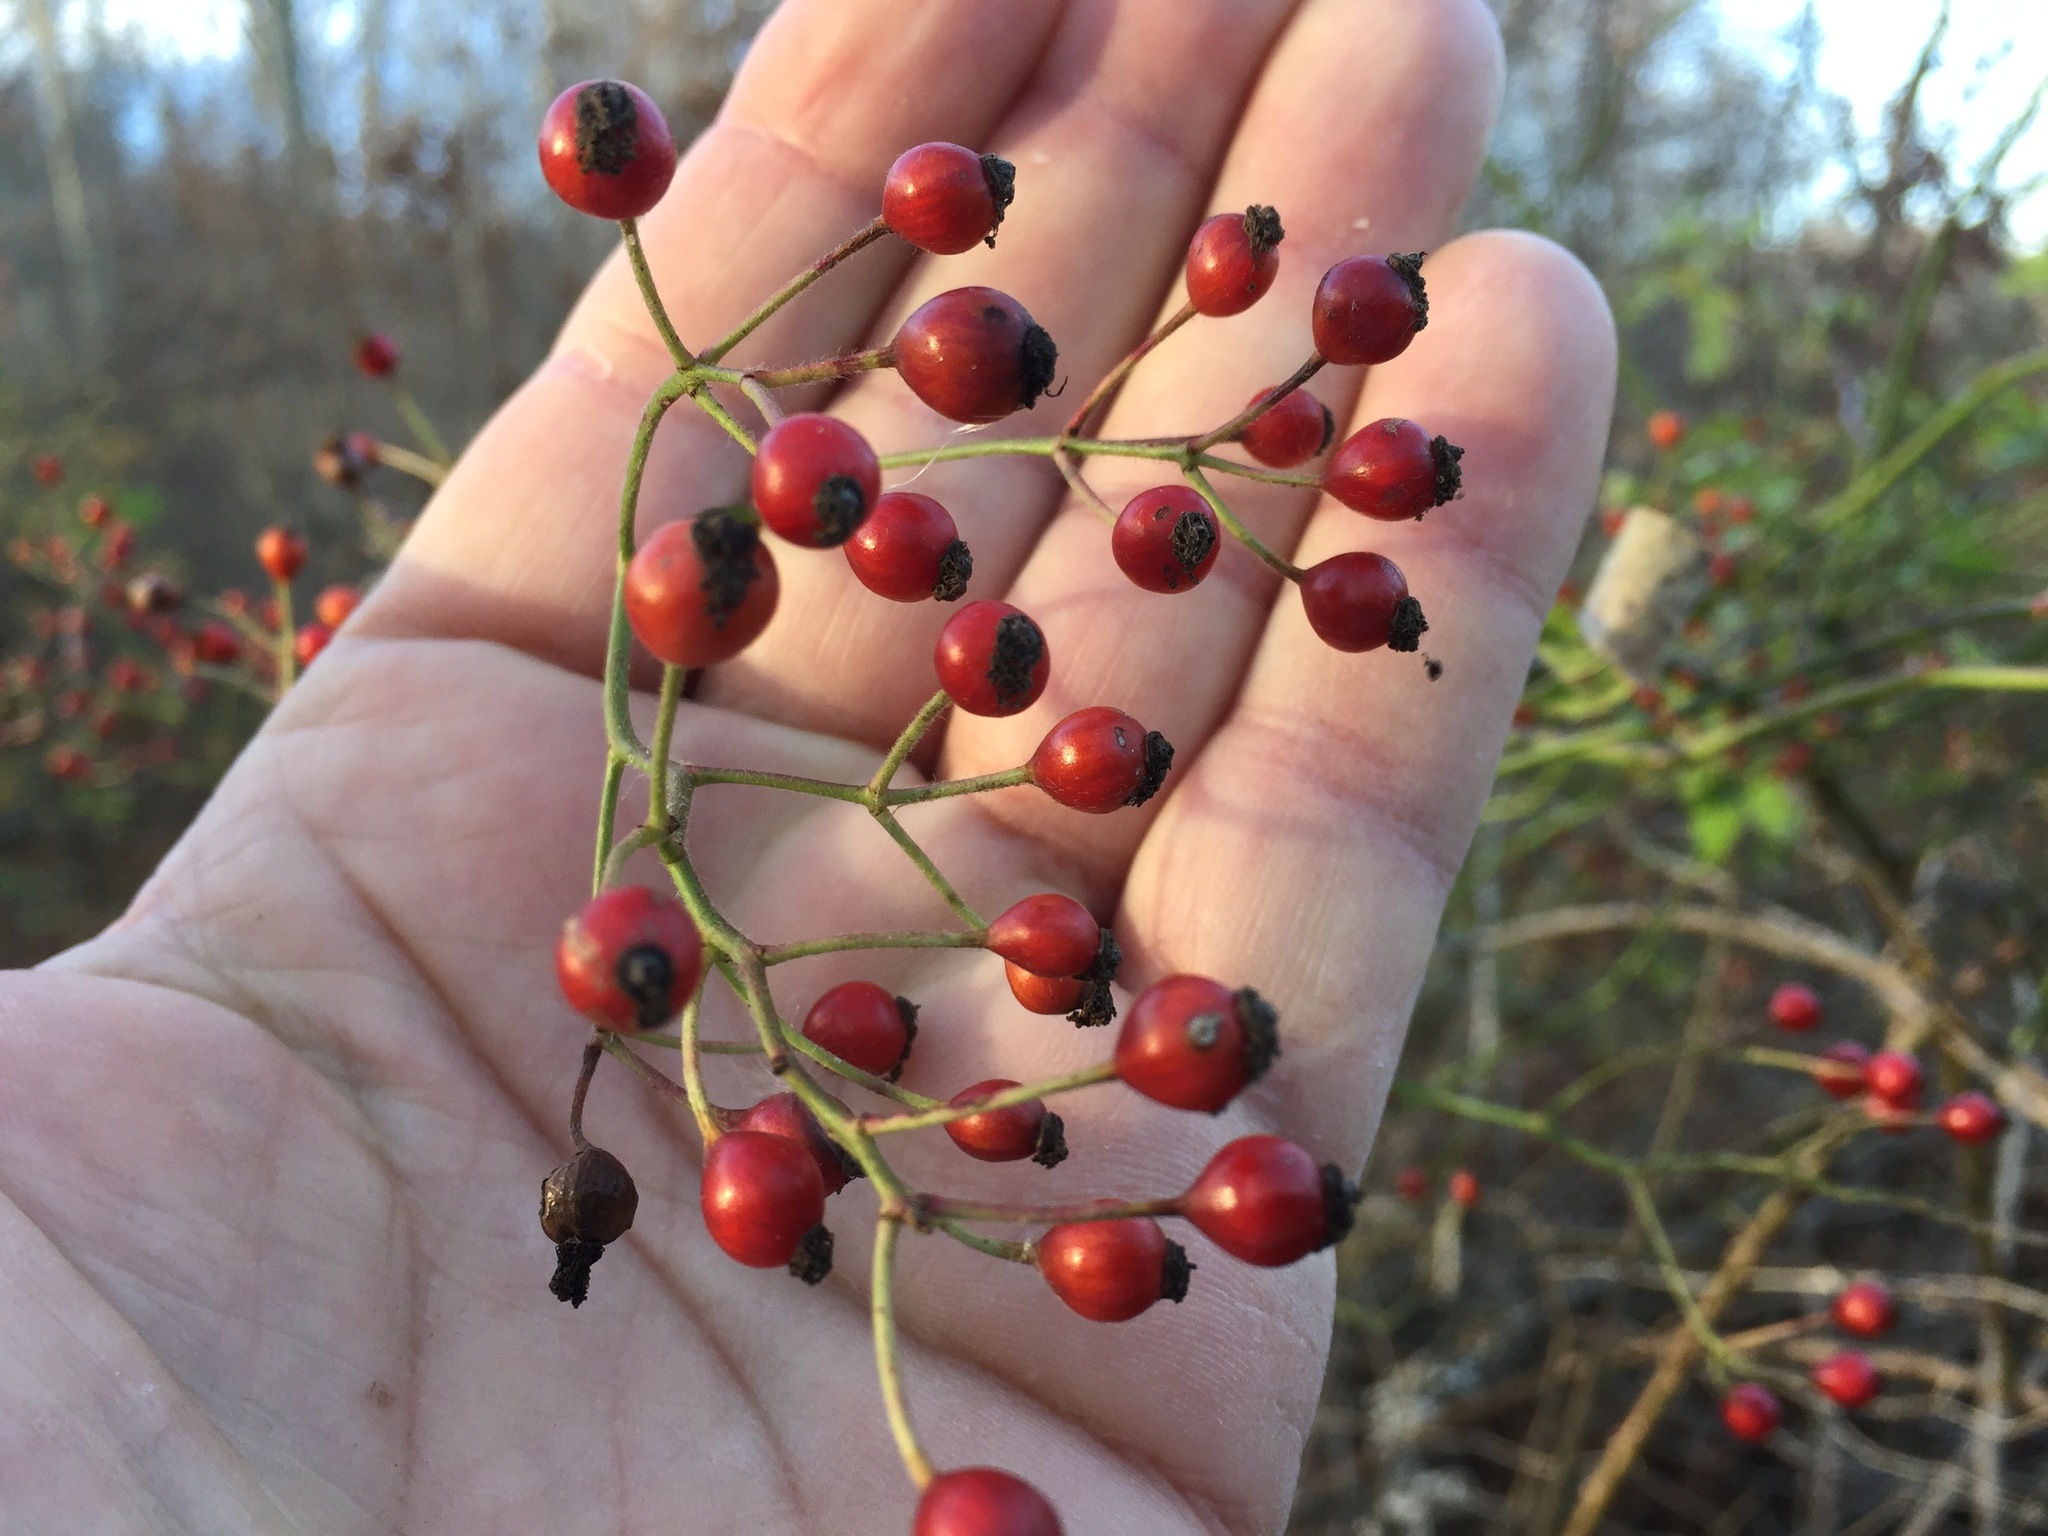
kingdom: Plantae
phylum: Tracheophyta
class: Magnoliopsida
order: Rosales
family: Rosaceae
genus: Rosa
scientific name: Rosa multiflora
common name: Multiflora rose
